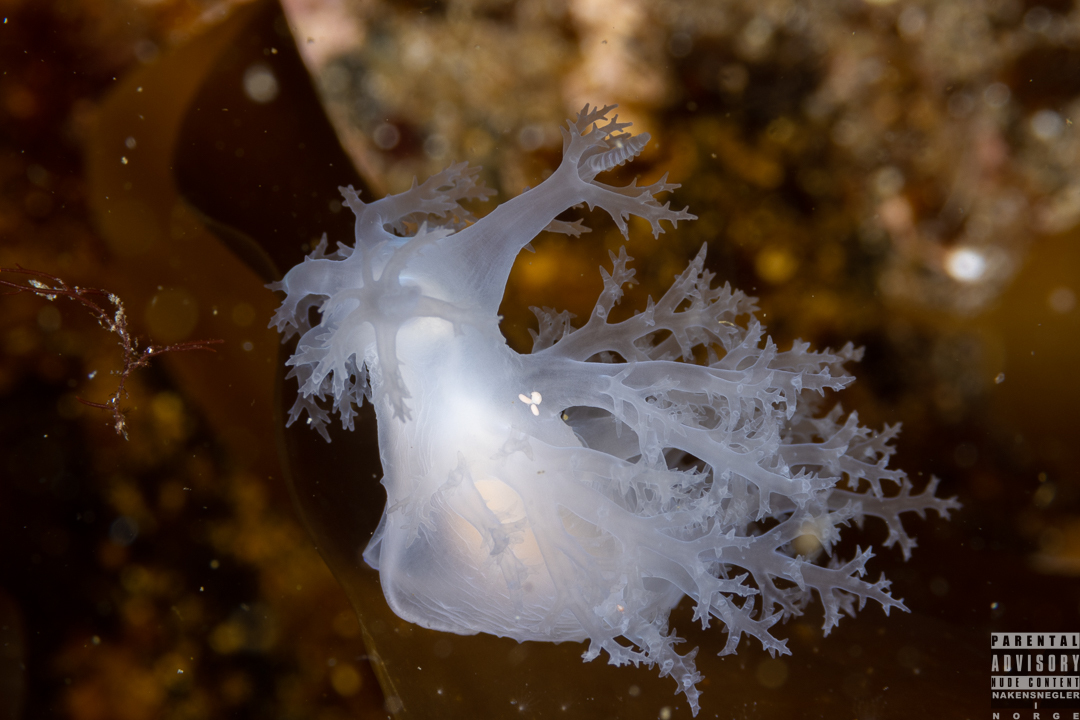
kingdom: Animalia
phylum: Mollusca
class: Gastropoda
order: Nudibranchia
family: Dendronotidae
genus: Dendronotus
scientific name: Dendronotus lacteus
